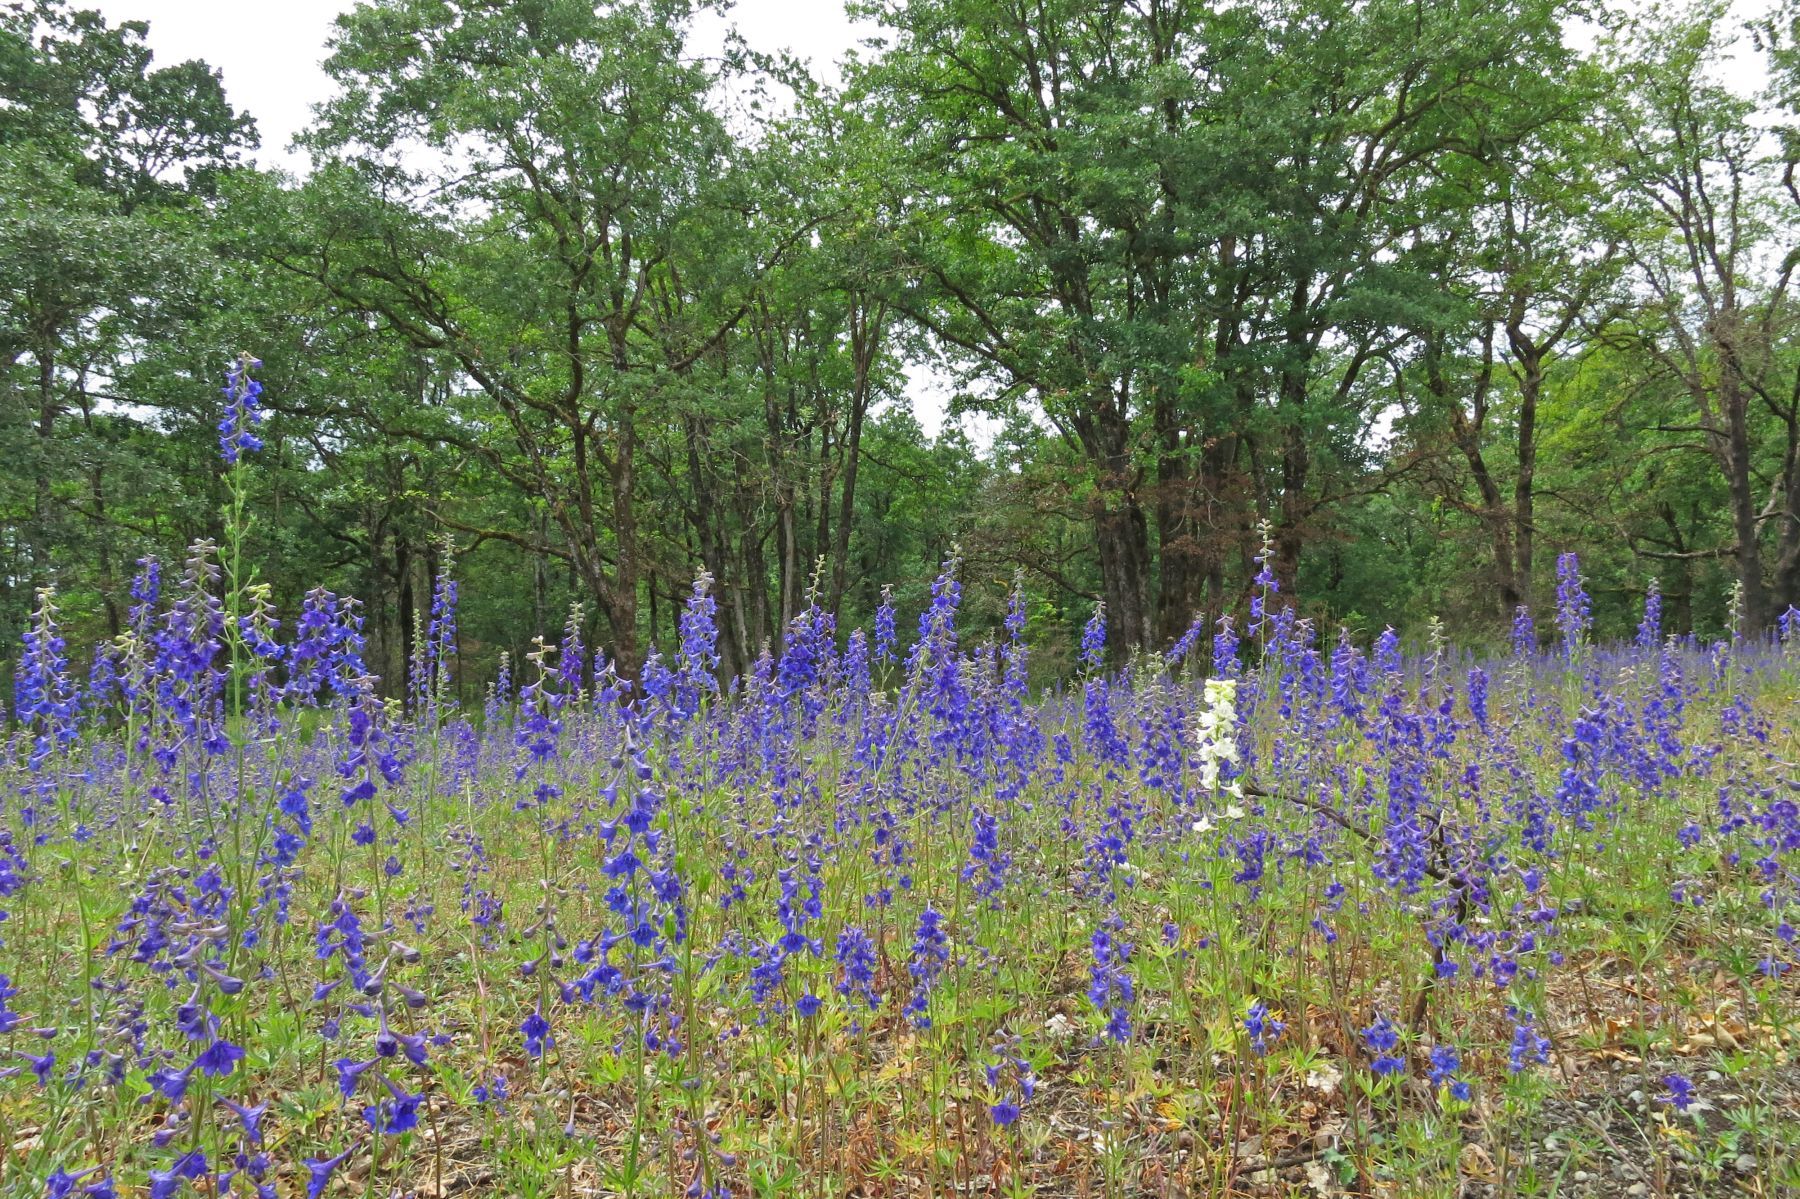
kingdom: Plantae
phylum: Tracheophyta
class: Magnoliopsida
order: Fagales
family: Fagaceae
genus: Quercus
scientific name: Quercus garryana
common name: Garry oak
